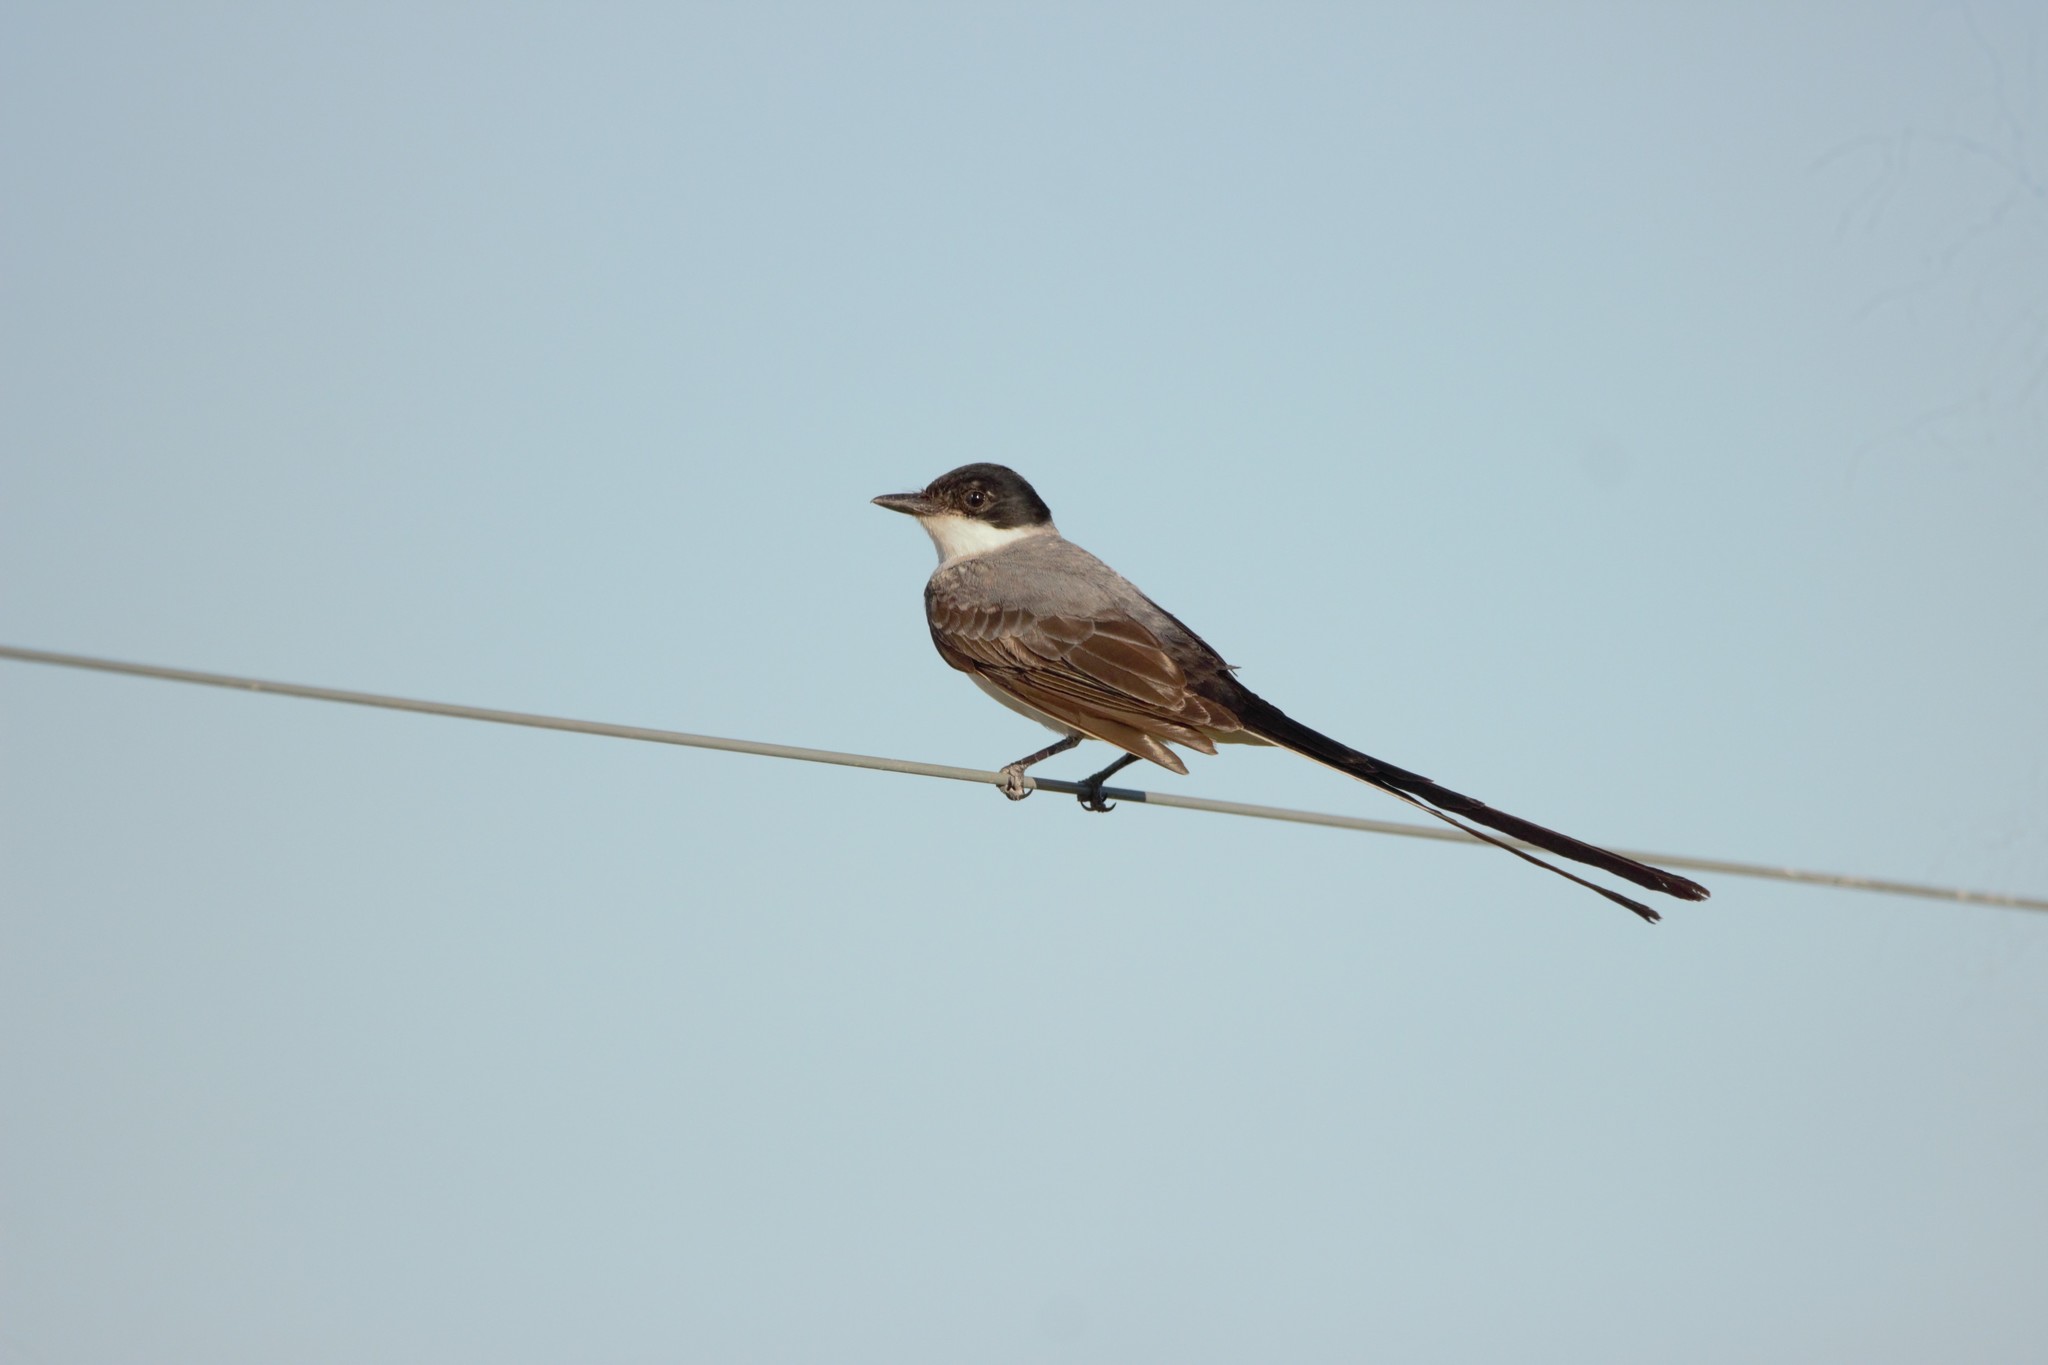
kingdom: Animalia
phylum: Chordata
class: Aves
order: Passeriformes
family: Tyrannidae
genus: Tyrannus
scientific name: Tyrannus savana
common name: Fork-tailed flycatcher
